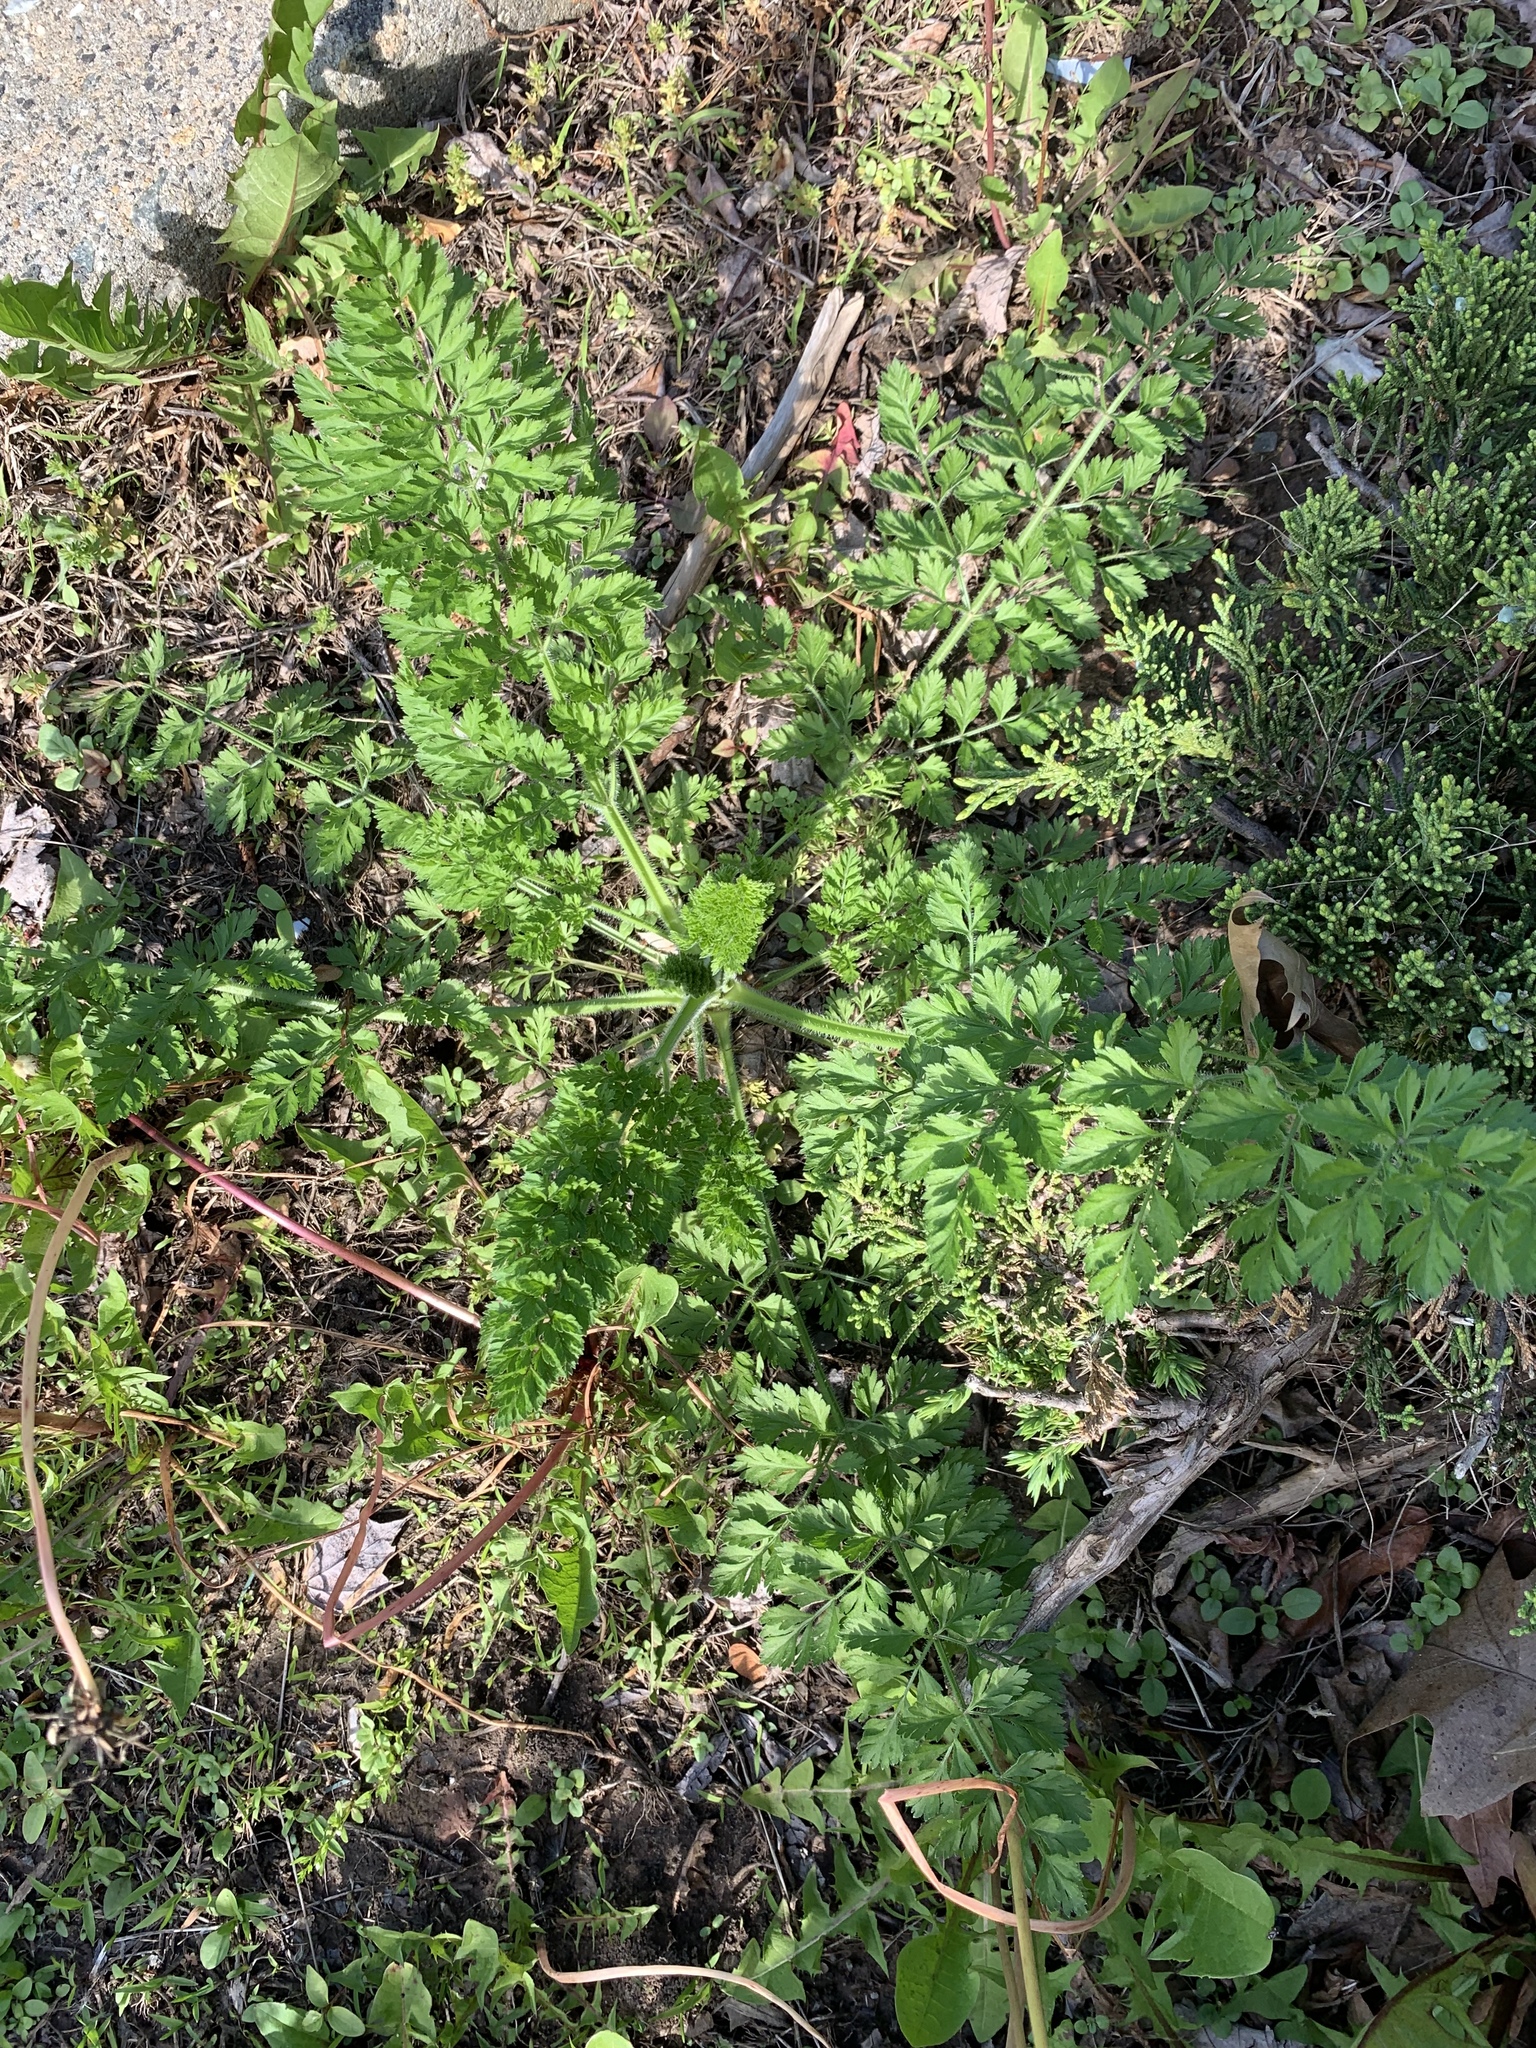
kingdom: Plantae
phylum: Tracheophyta
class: Magnoliopsida
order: Apiales
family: Apiaceae
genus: Daucus
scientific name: Daucus carota
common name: Wild carrot
